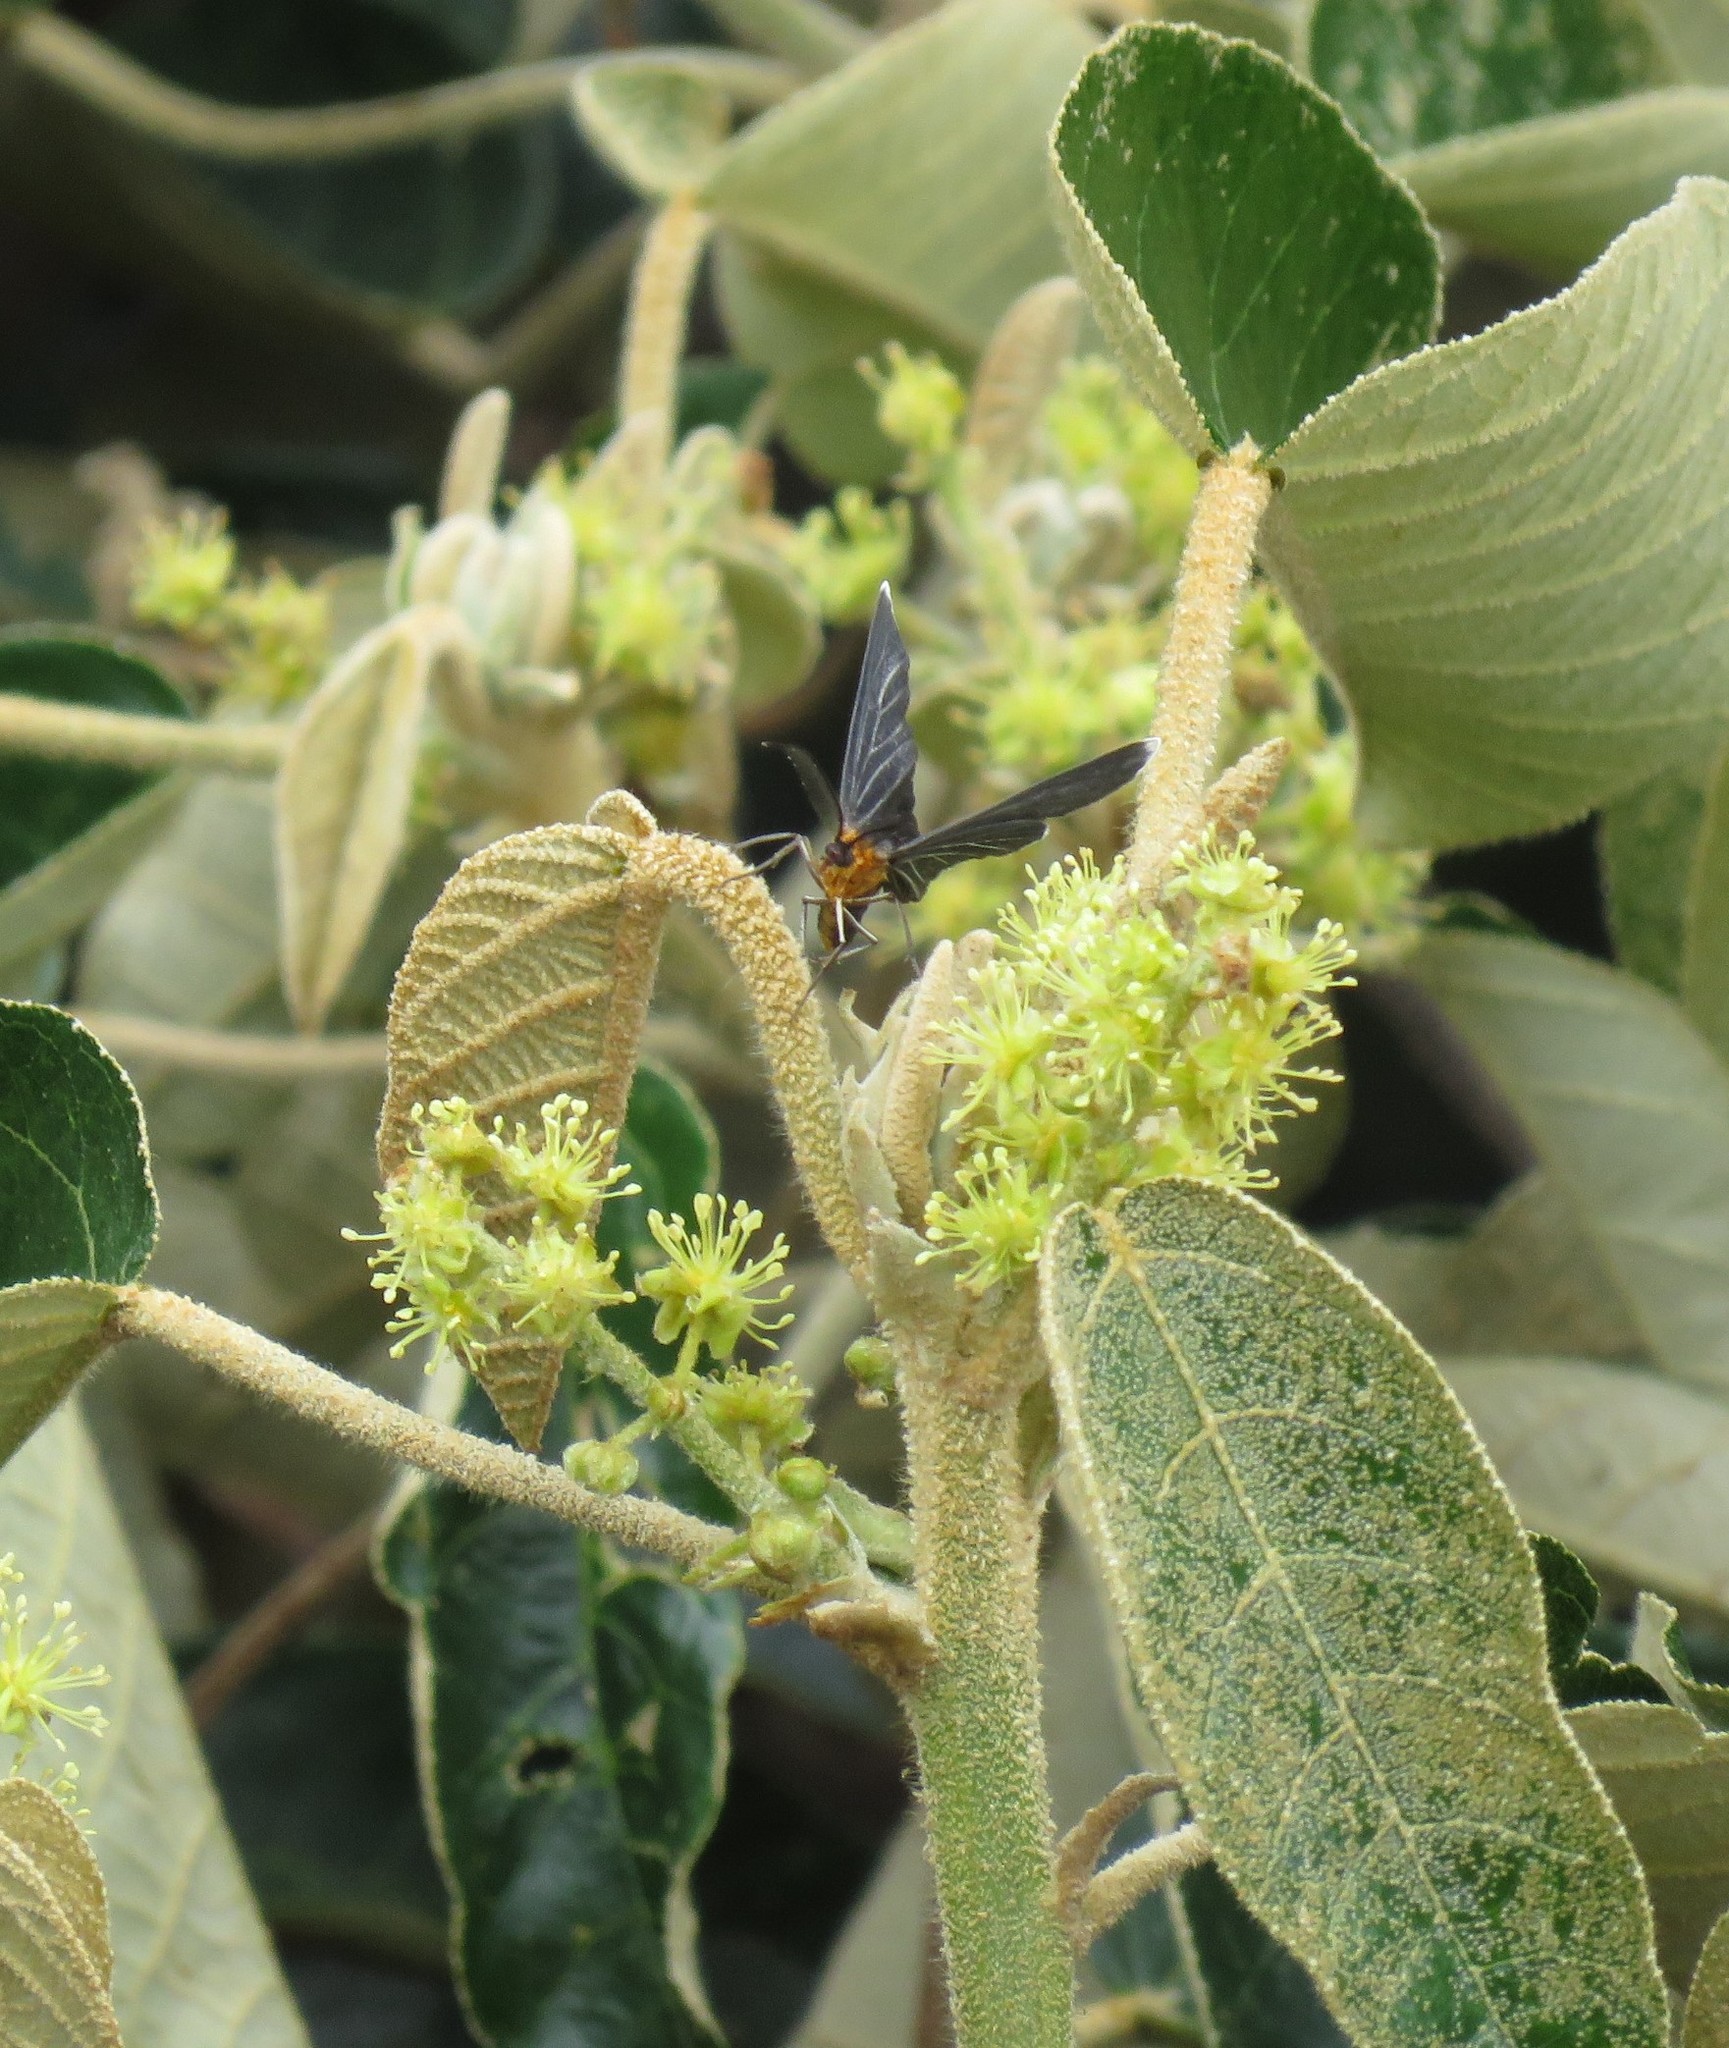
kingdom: Animalia
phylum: Arthropoda
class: Insecta
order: Lepidoptera
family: Geometridae
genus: Melanchroia
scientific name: Melanchroia chephise
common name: White-tipped black
